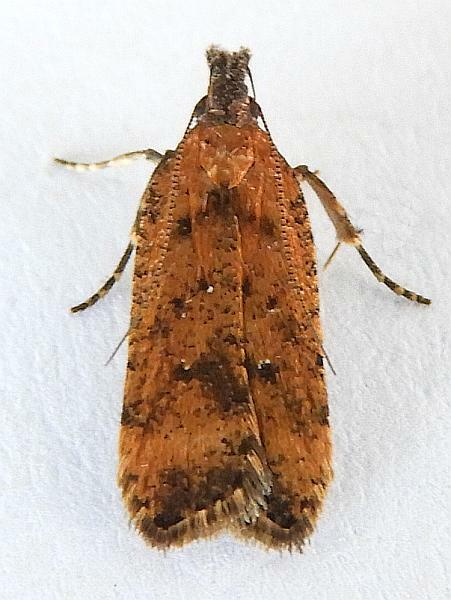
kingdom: Animalia
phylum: Arthropoda
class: Insecta
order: Lepidoptera
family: Gelechiidae
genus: Dichomeris
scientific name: Dichomeris vacciniella
